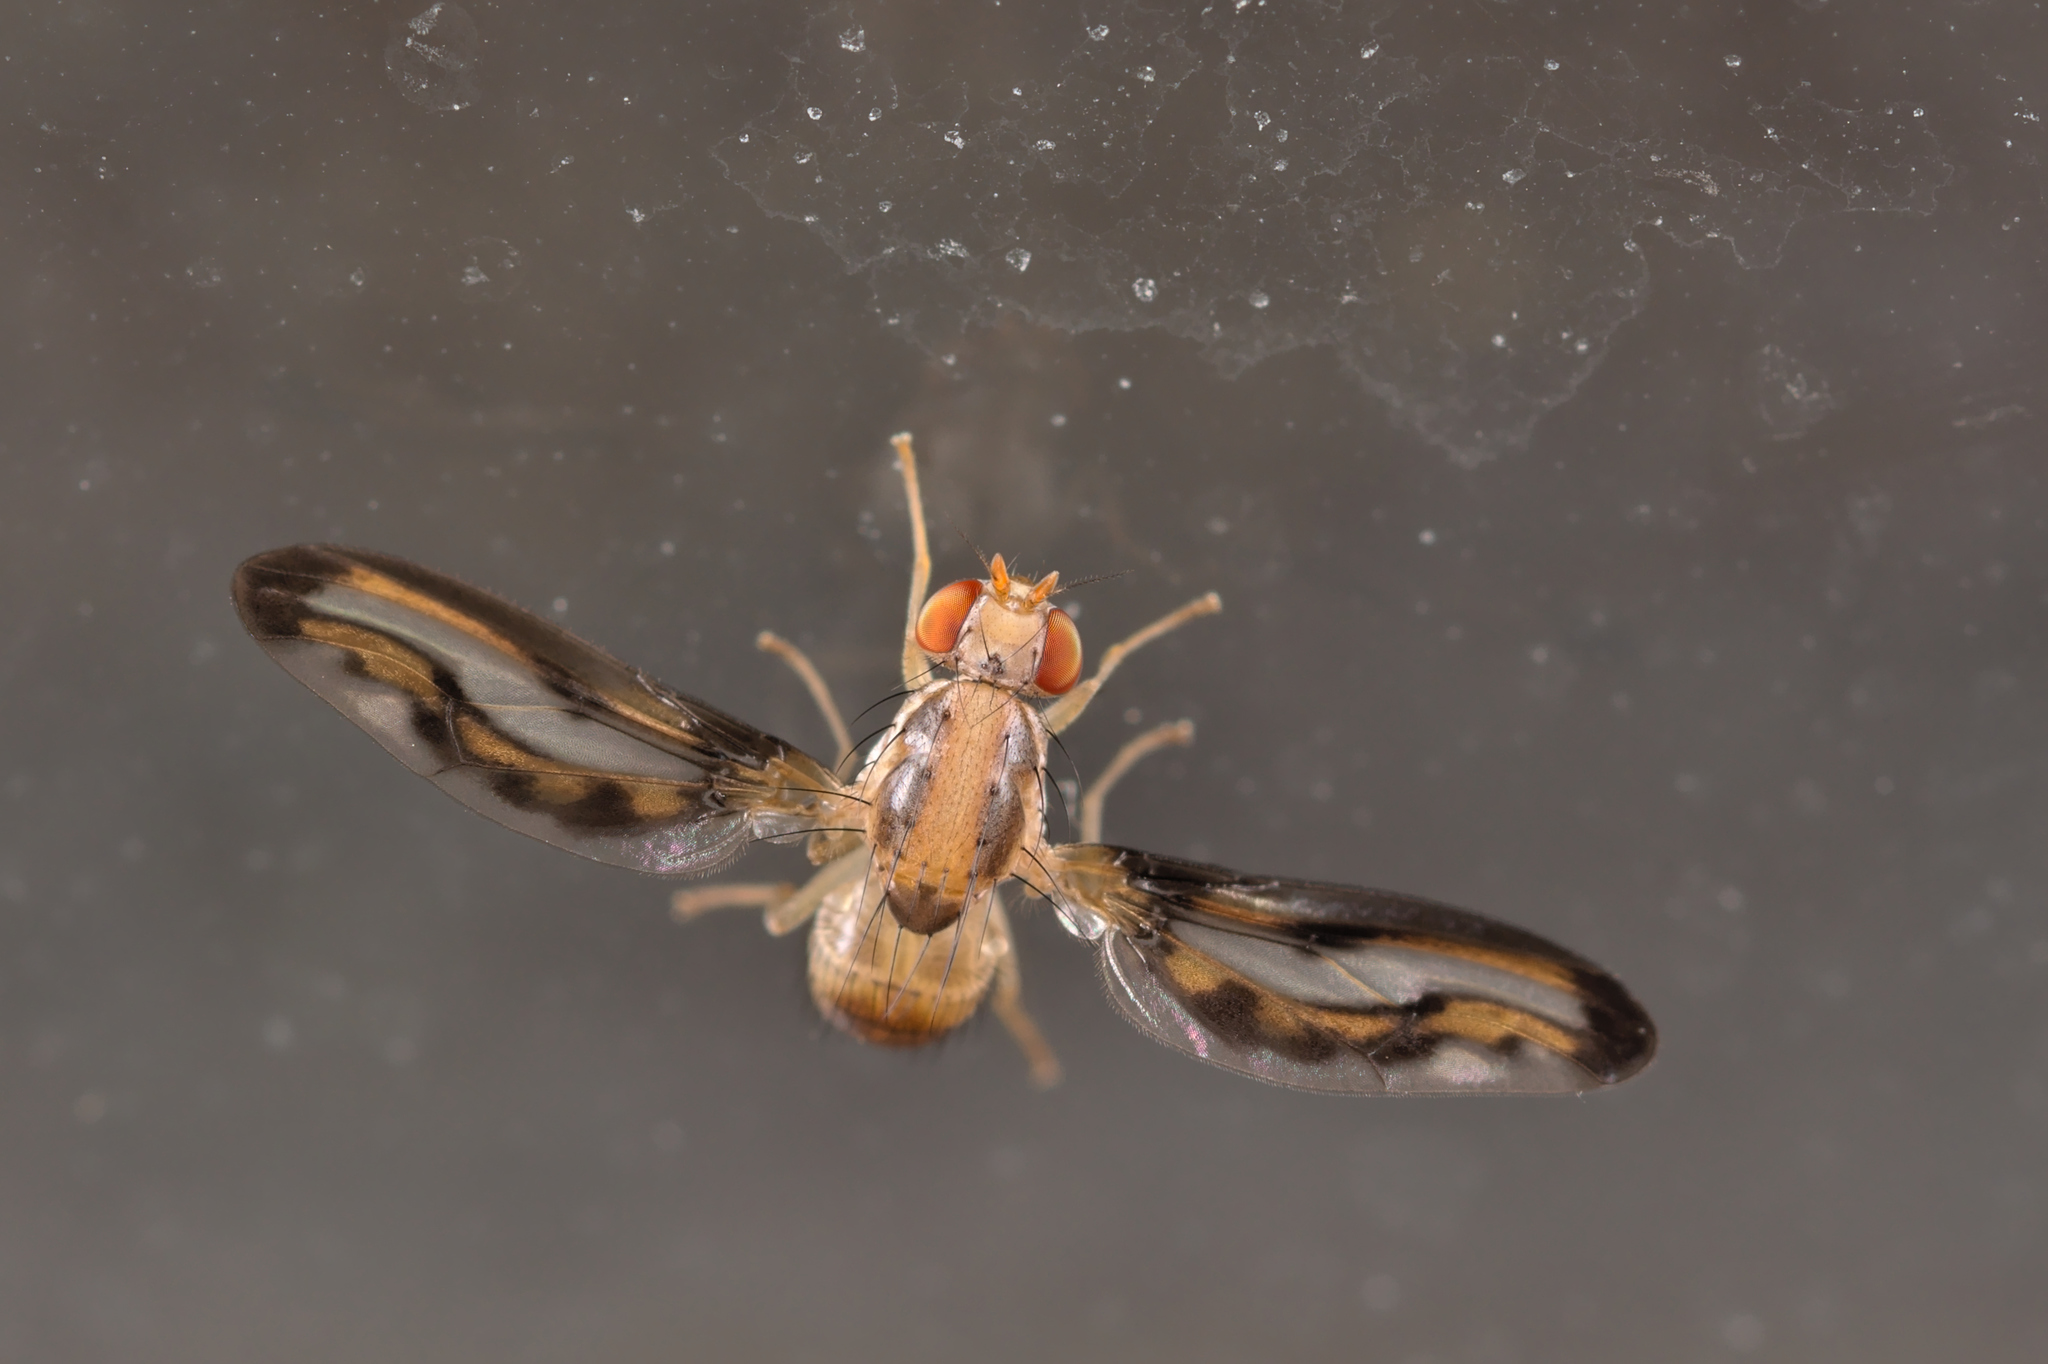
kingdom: Animalia
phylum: Arthropoda
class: Insecta
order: Diptera
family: Pallopteridae
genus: Toxonevra
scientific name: Toxonevra muliebris
